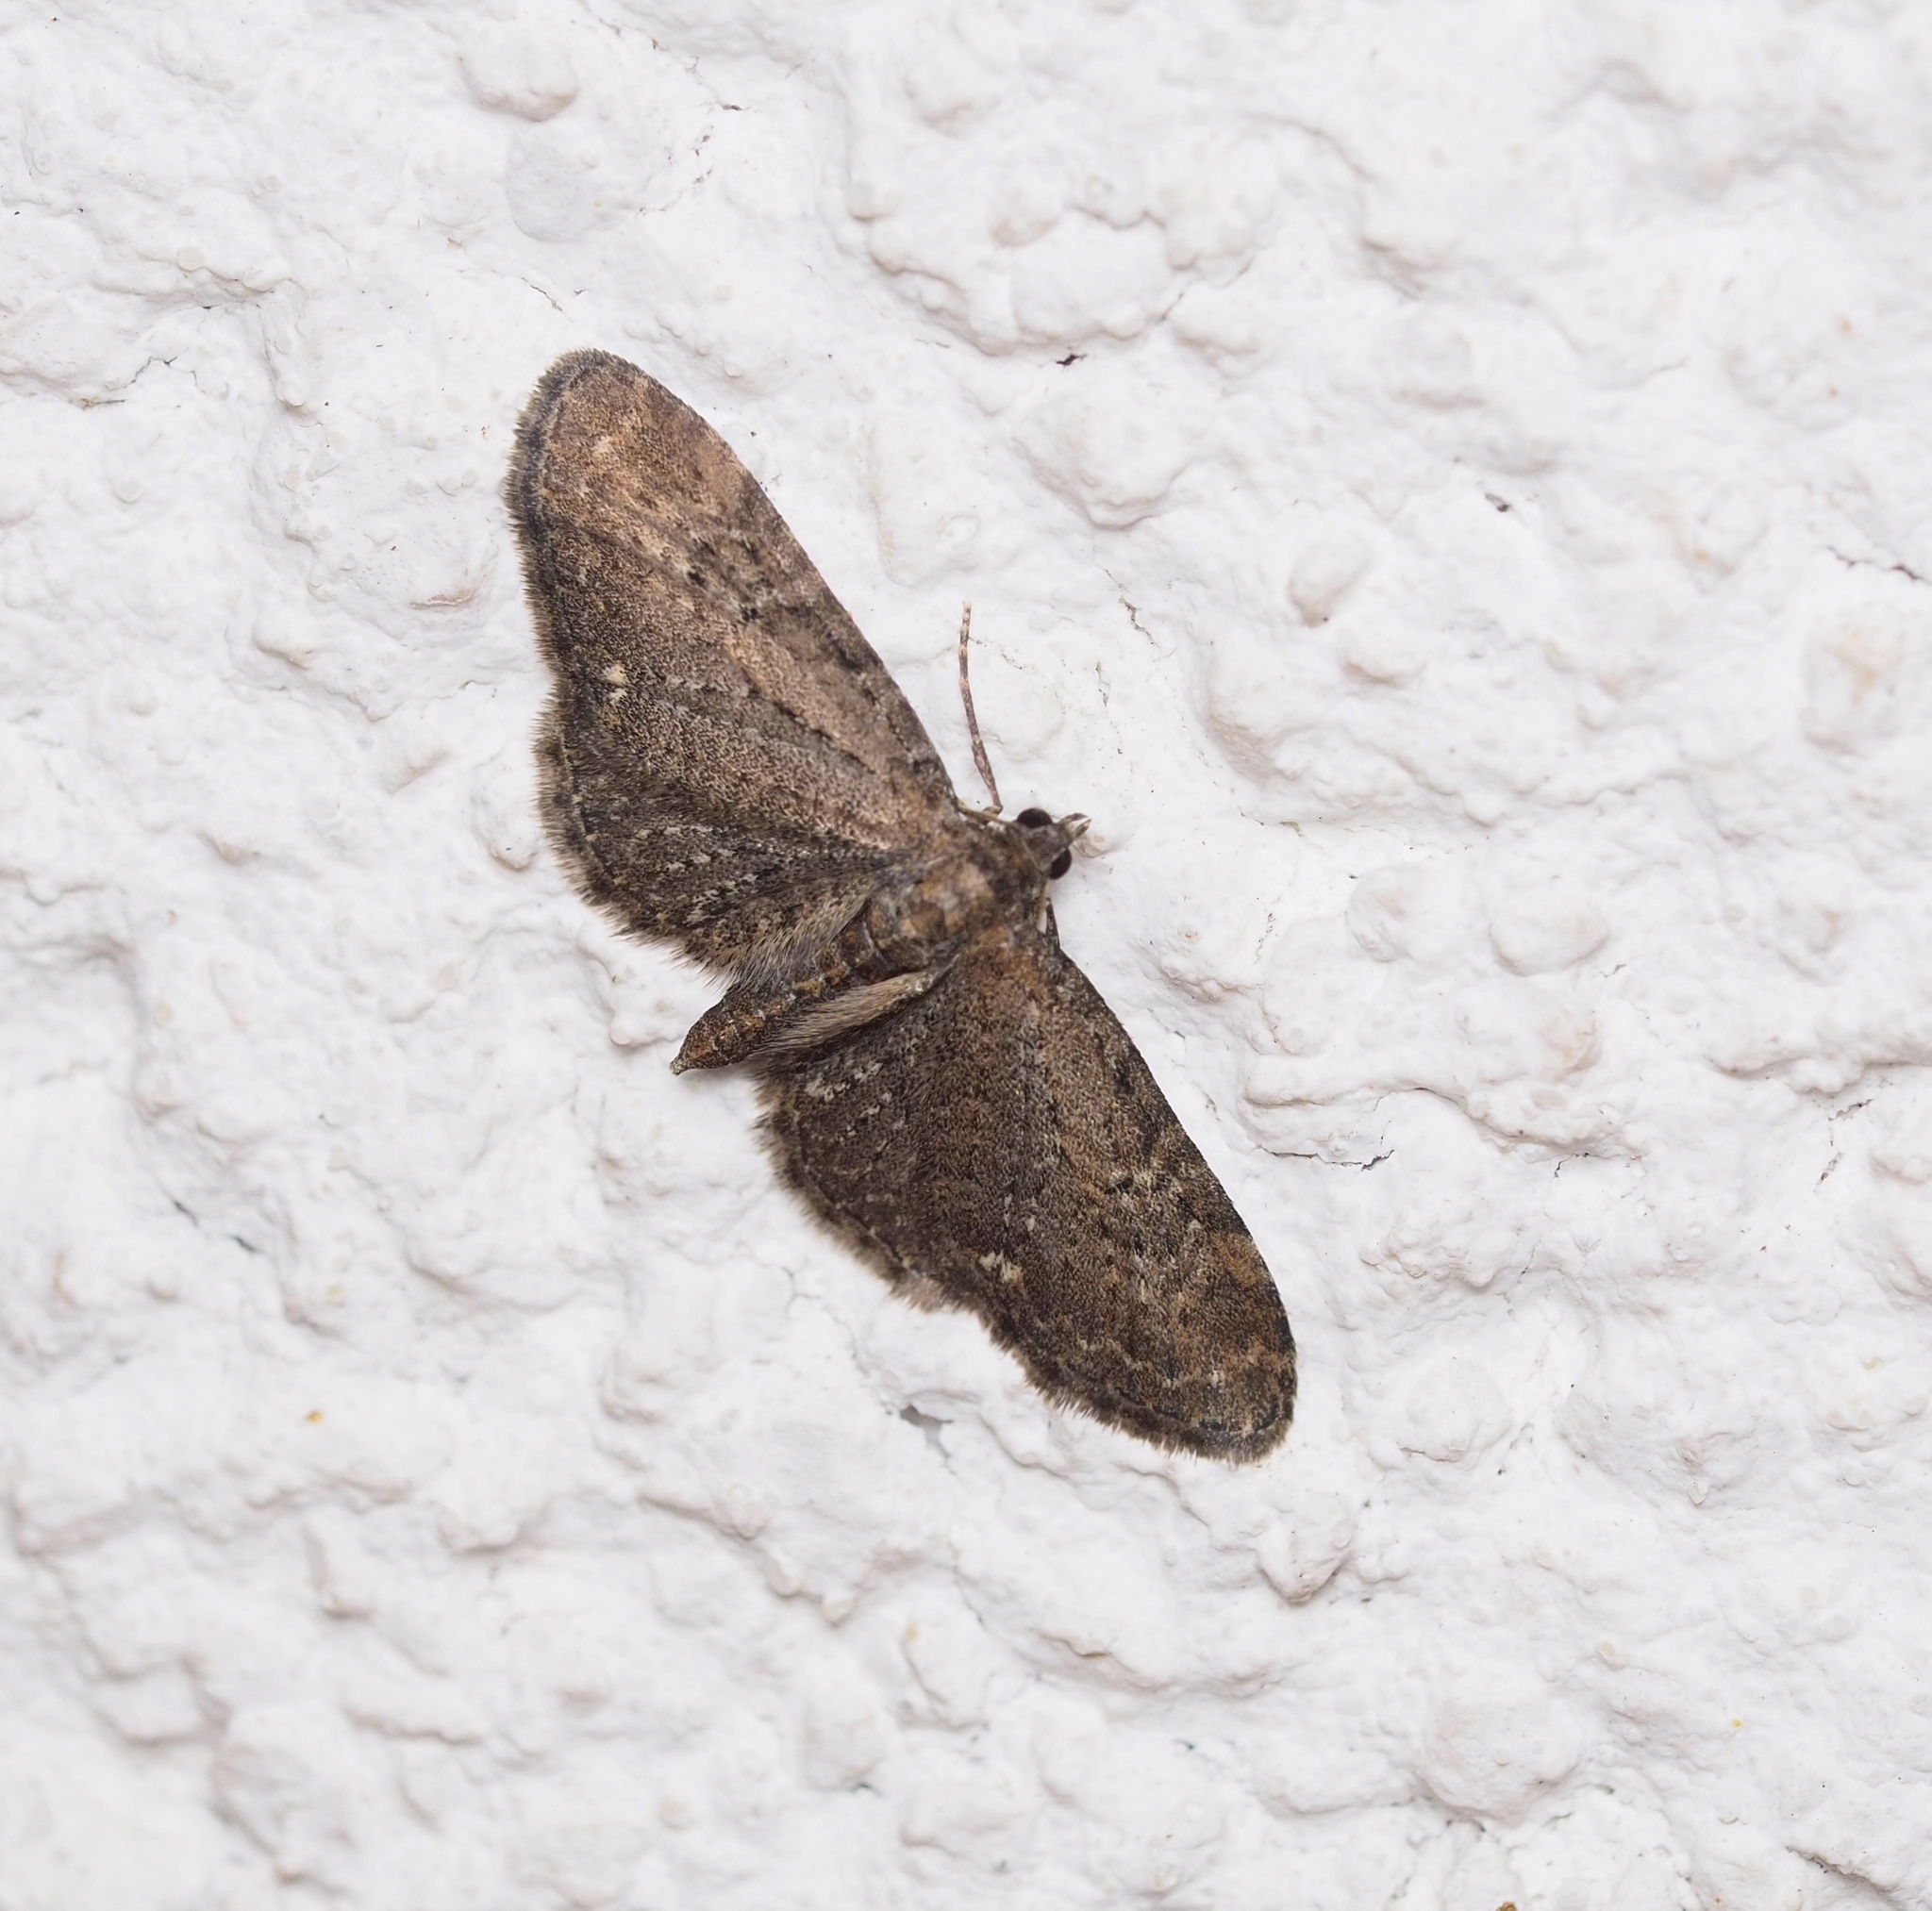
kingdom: Animalia
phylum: Arthropoda
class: Insecta
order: Lepidoptera
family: Geometridae
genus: Eupithecia
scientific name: Eupithecia vulgata
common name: Common pug
